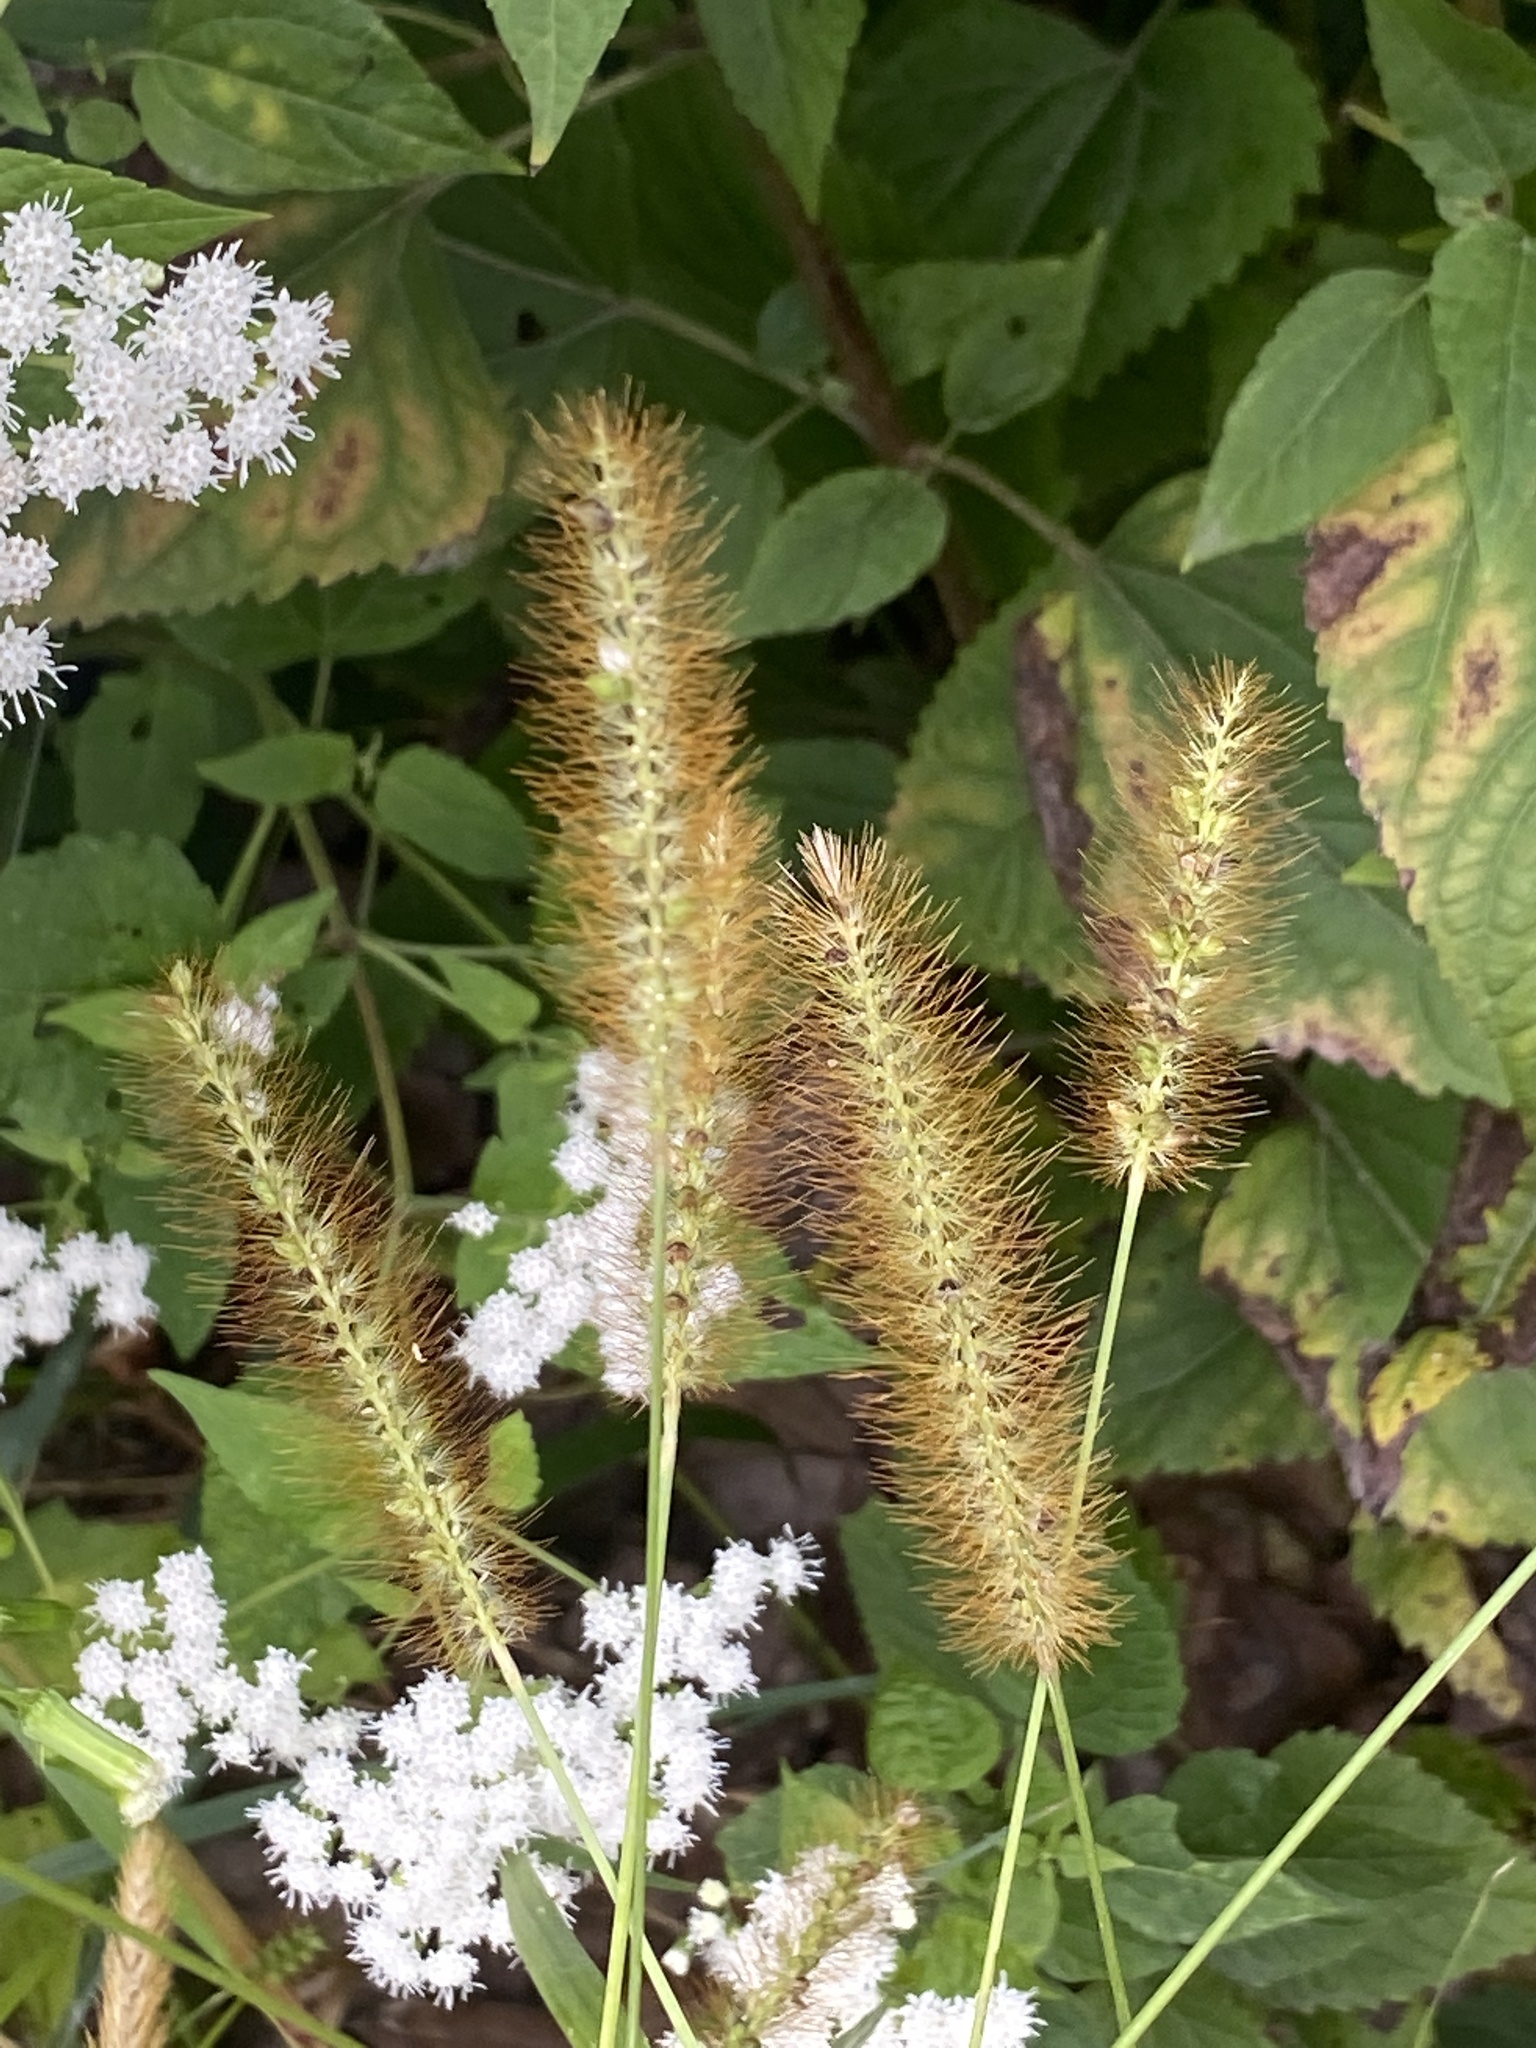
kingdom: Plantae
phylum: Tracheophyta
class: Liliopsida
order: Poales
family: Poaceae
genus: Setaria
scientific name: Setaria pumila
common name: Yellow bristle-grass
